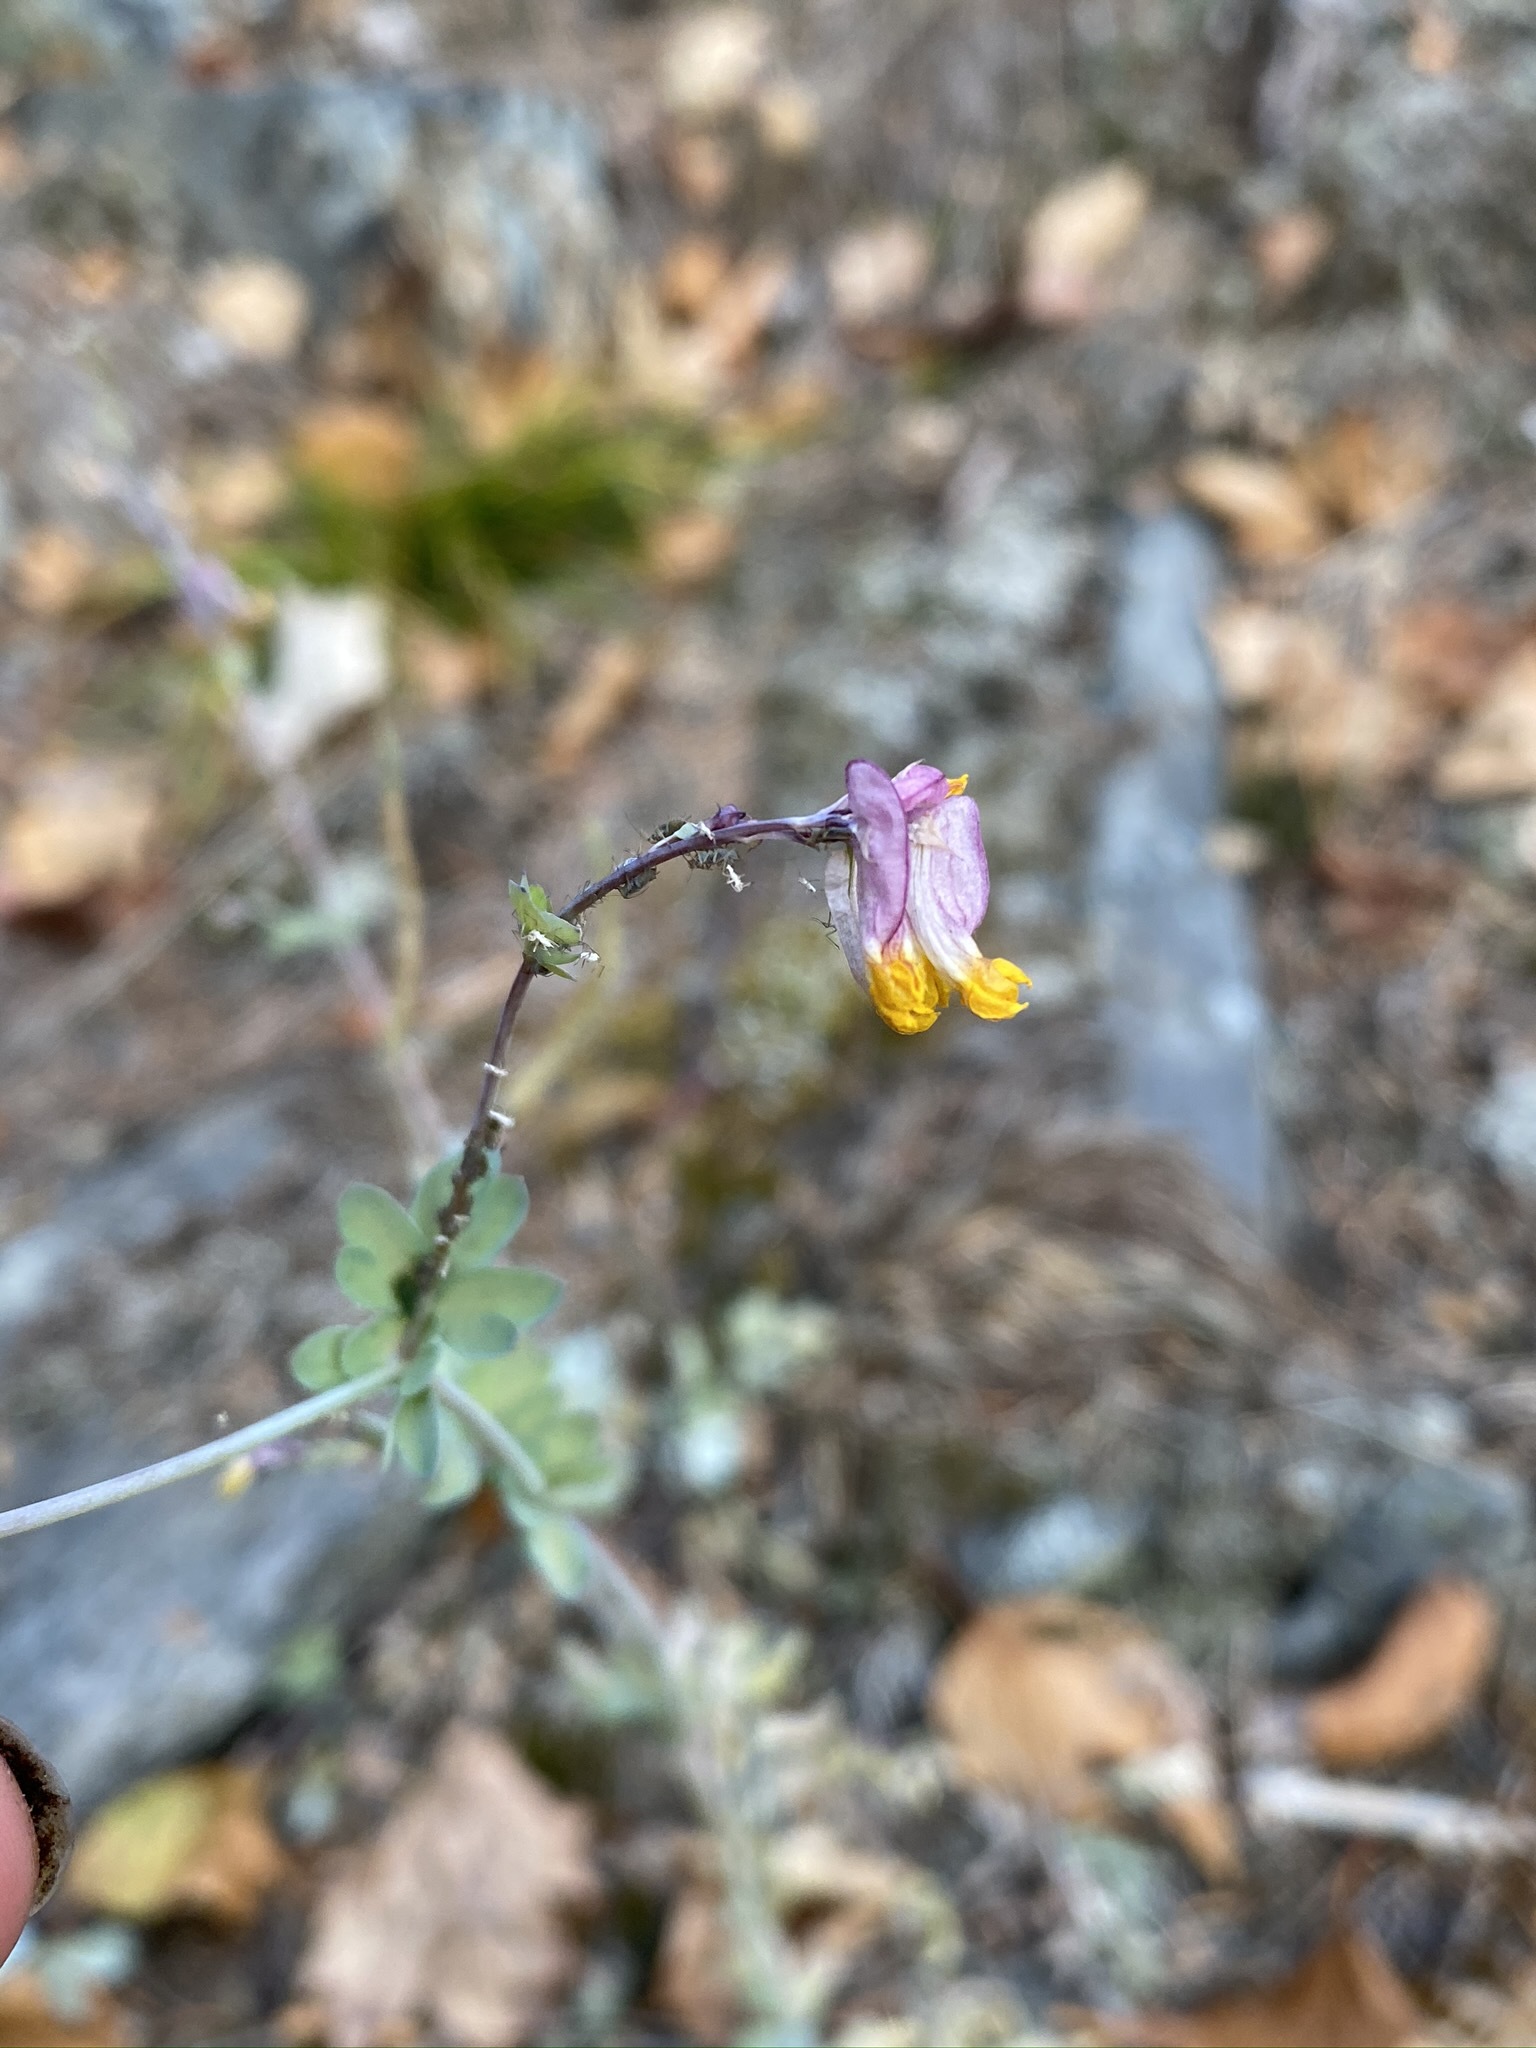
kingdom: Plantae
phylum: Tracheophyta
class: Magnoliopsida
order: Ranunculales
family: Papaveraceae
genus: Capnoides
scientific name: Capnoides sempervirens
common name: Rock harlequin
